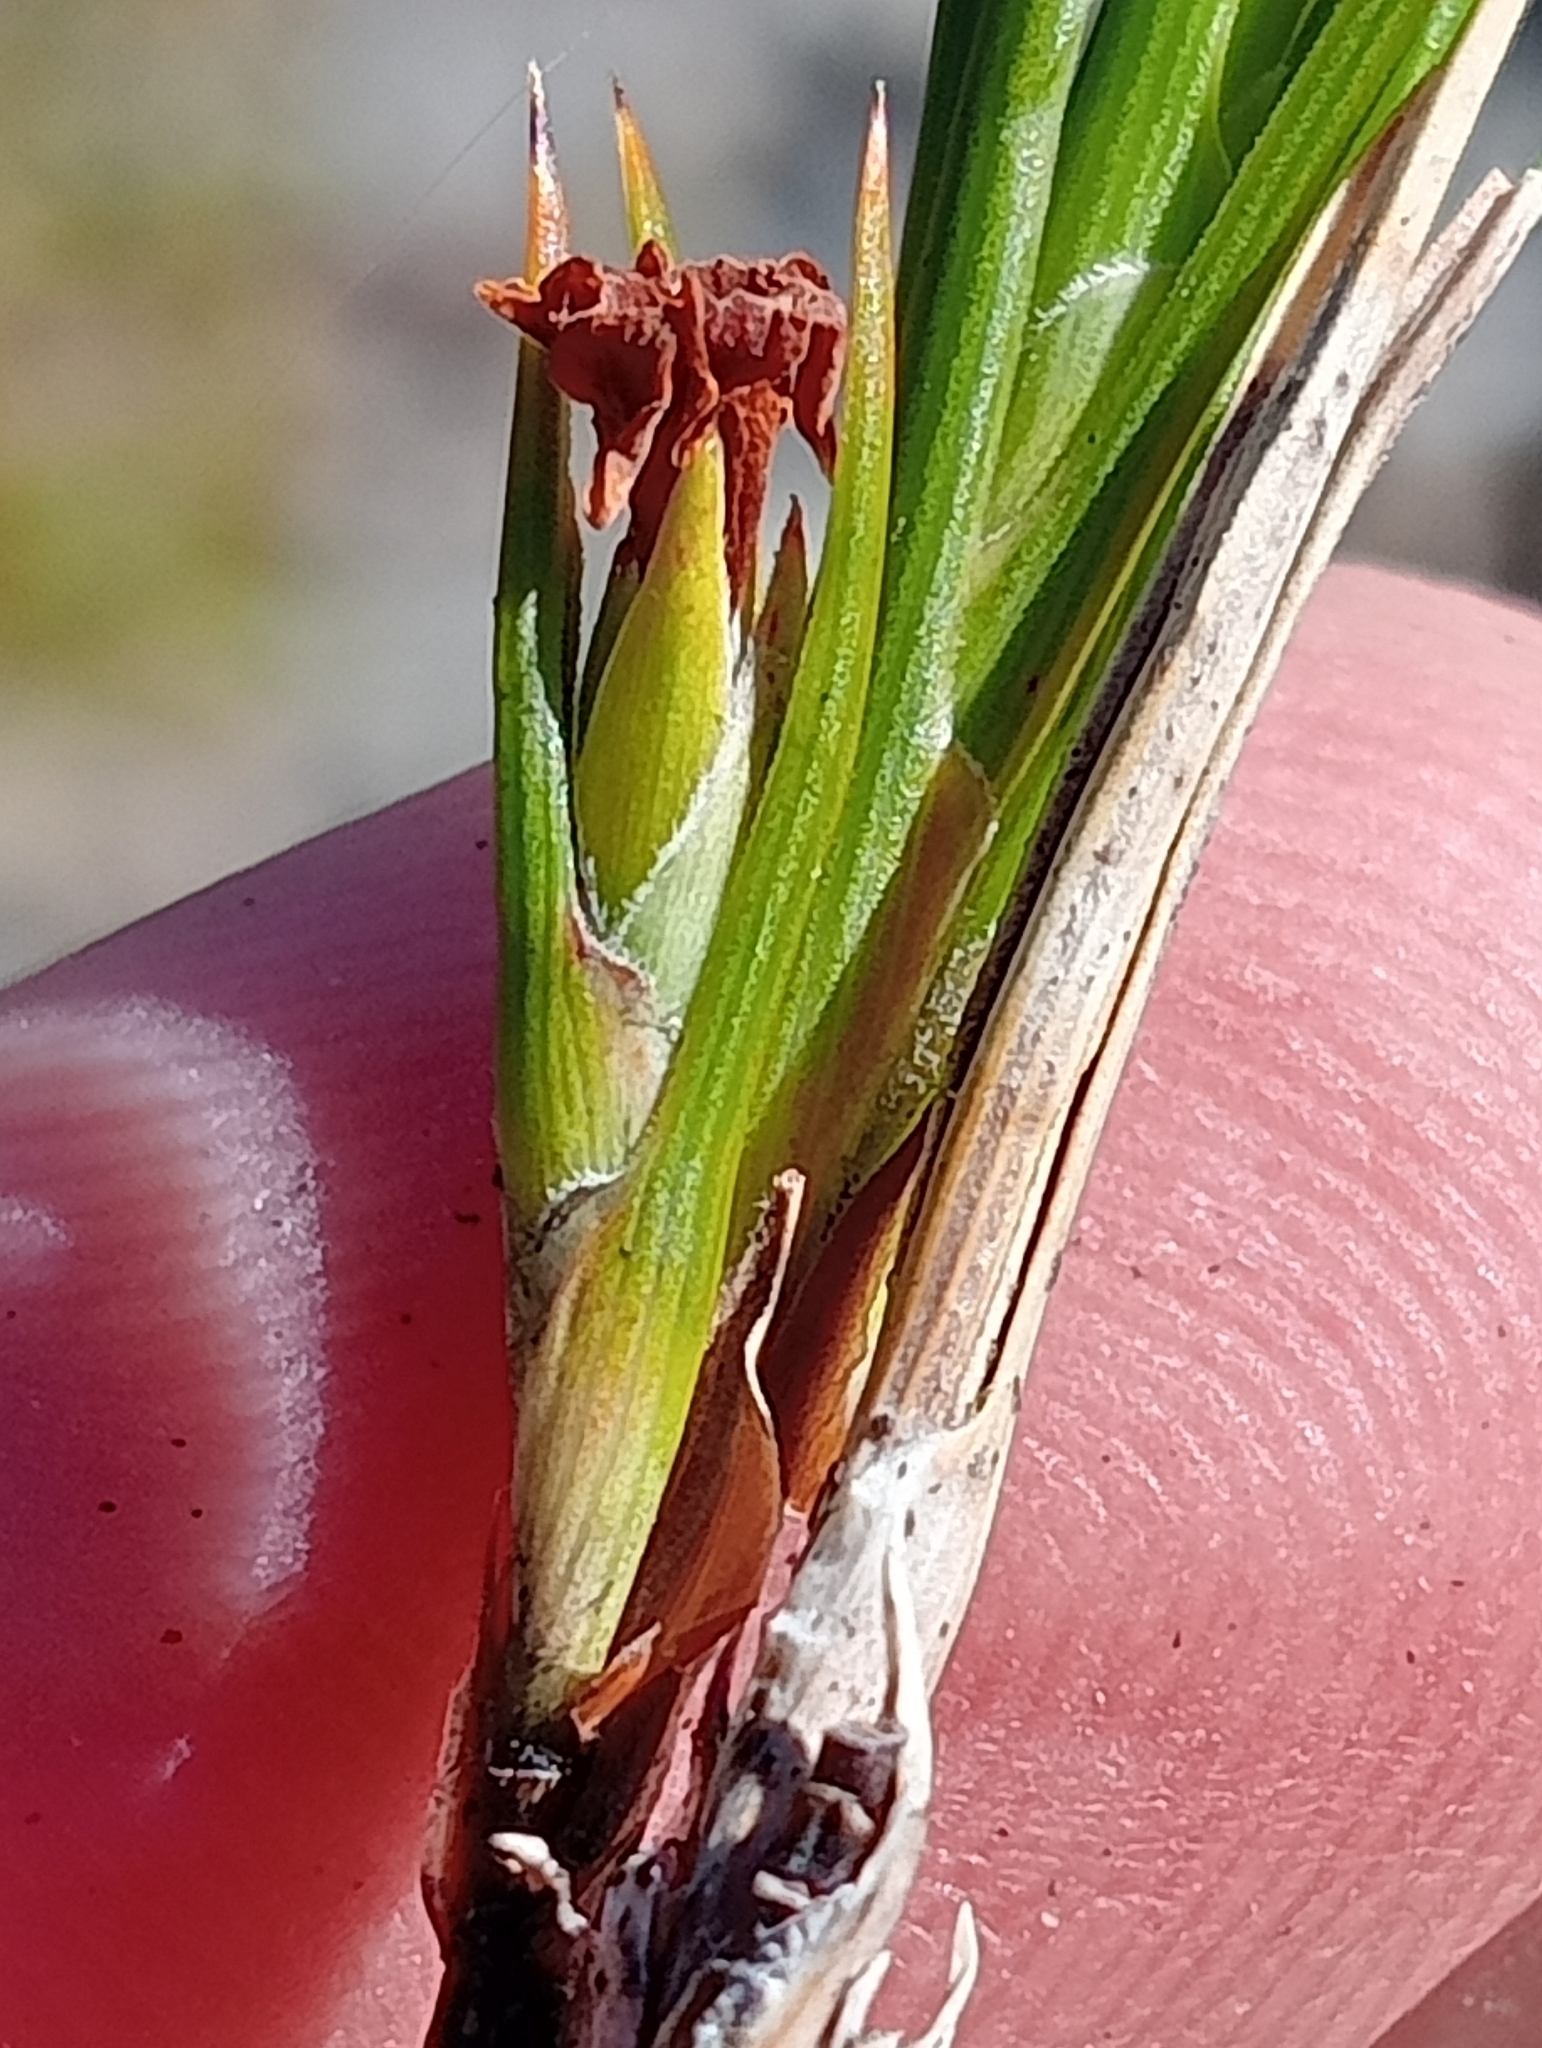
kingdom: Plantae
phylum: Tracheophyta
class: Magnoliopsida
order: Ericales
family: Ericaceae
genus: Dracophyllum
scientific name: Dracophyllum rosmarinifolium
